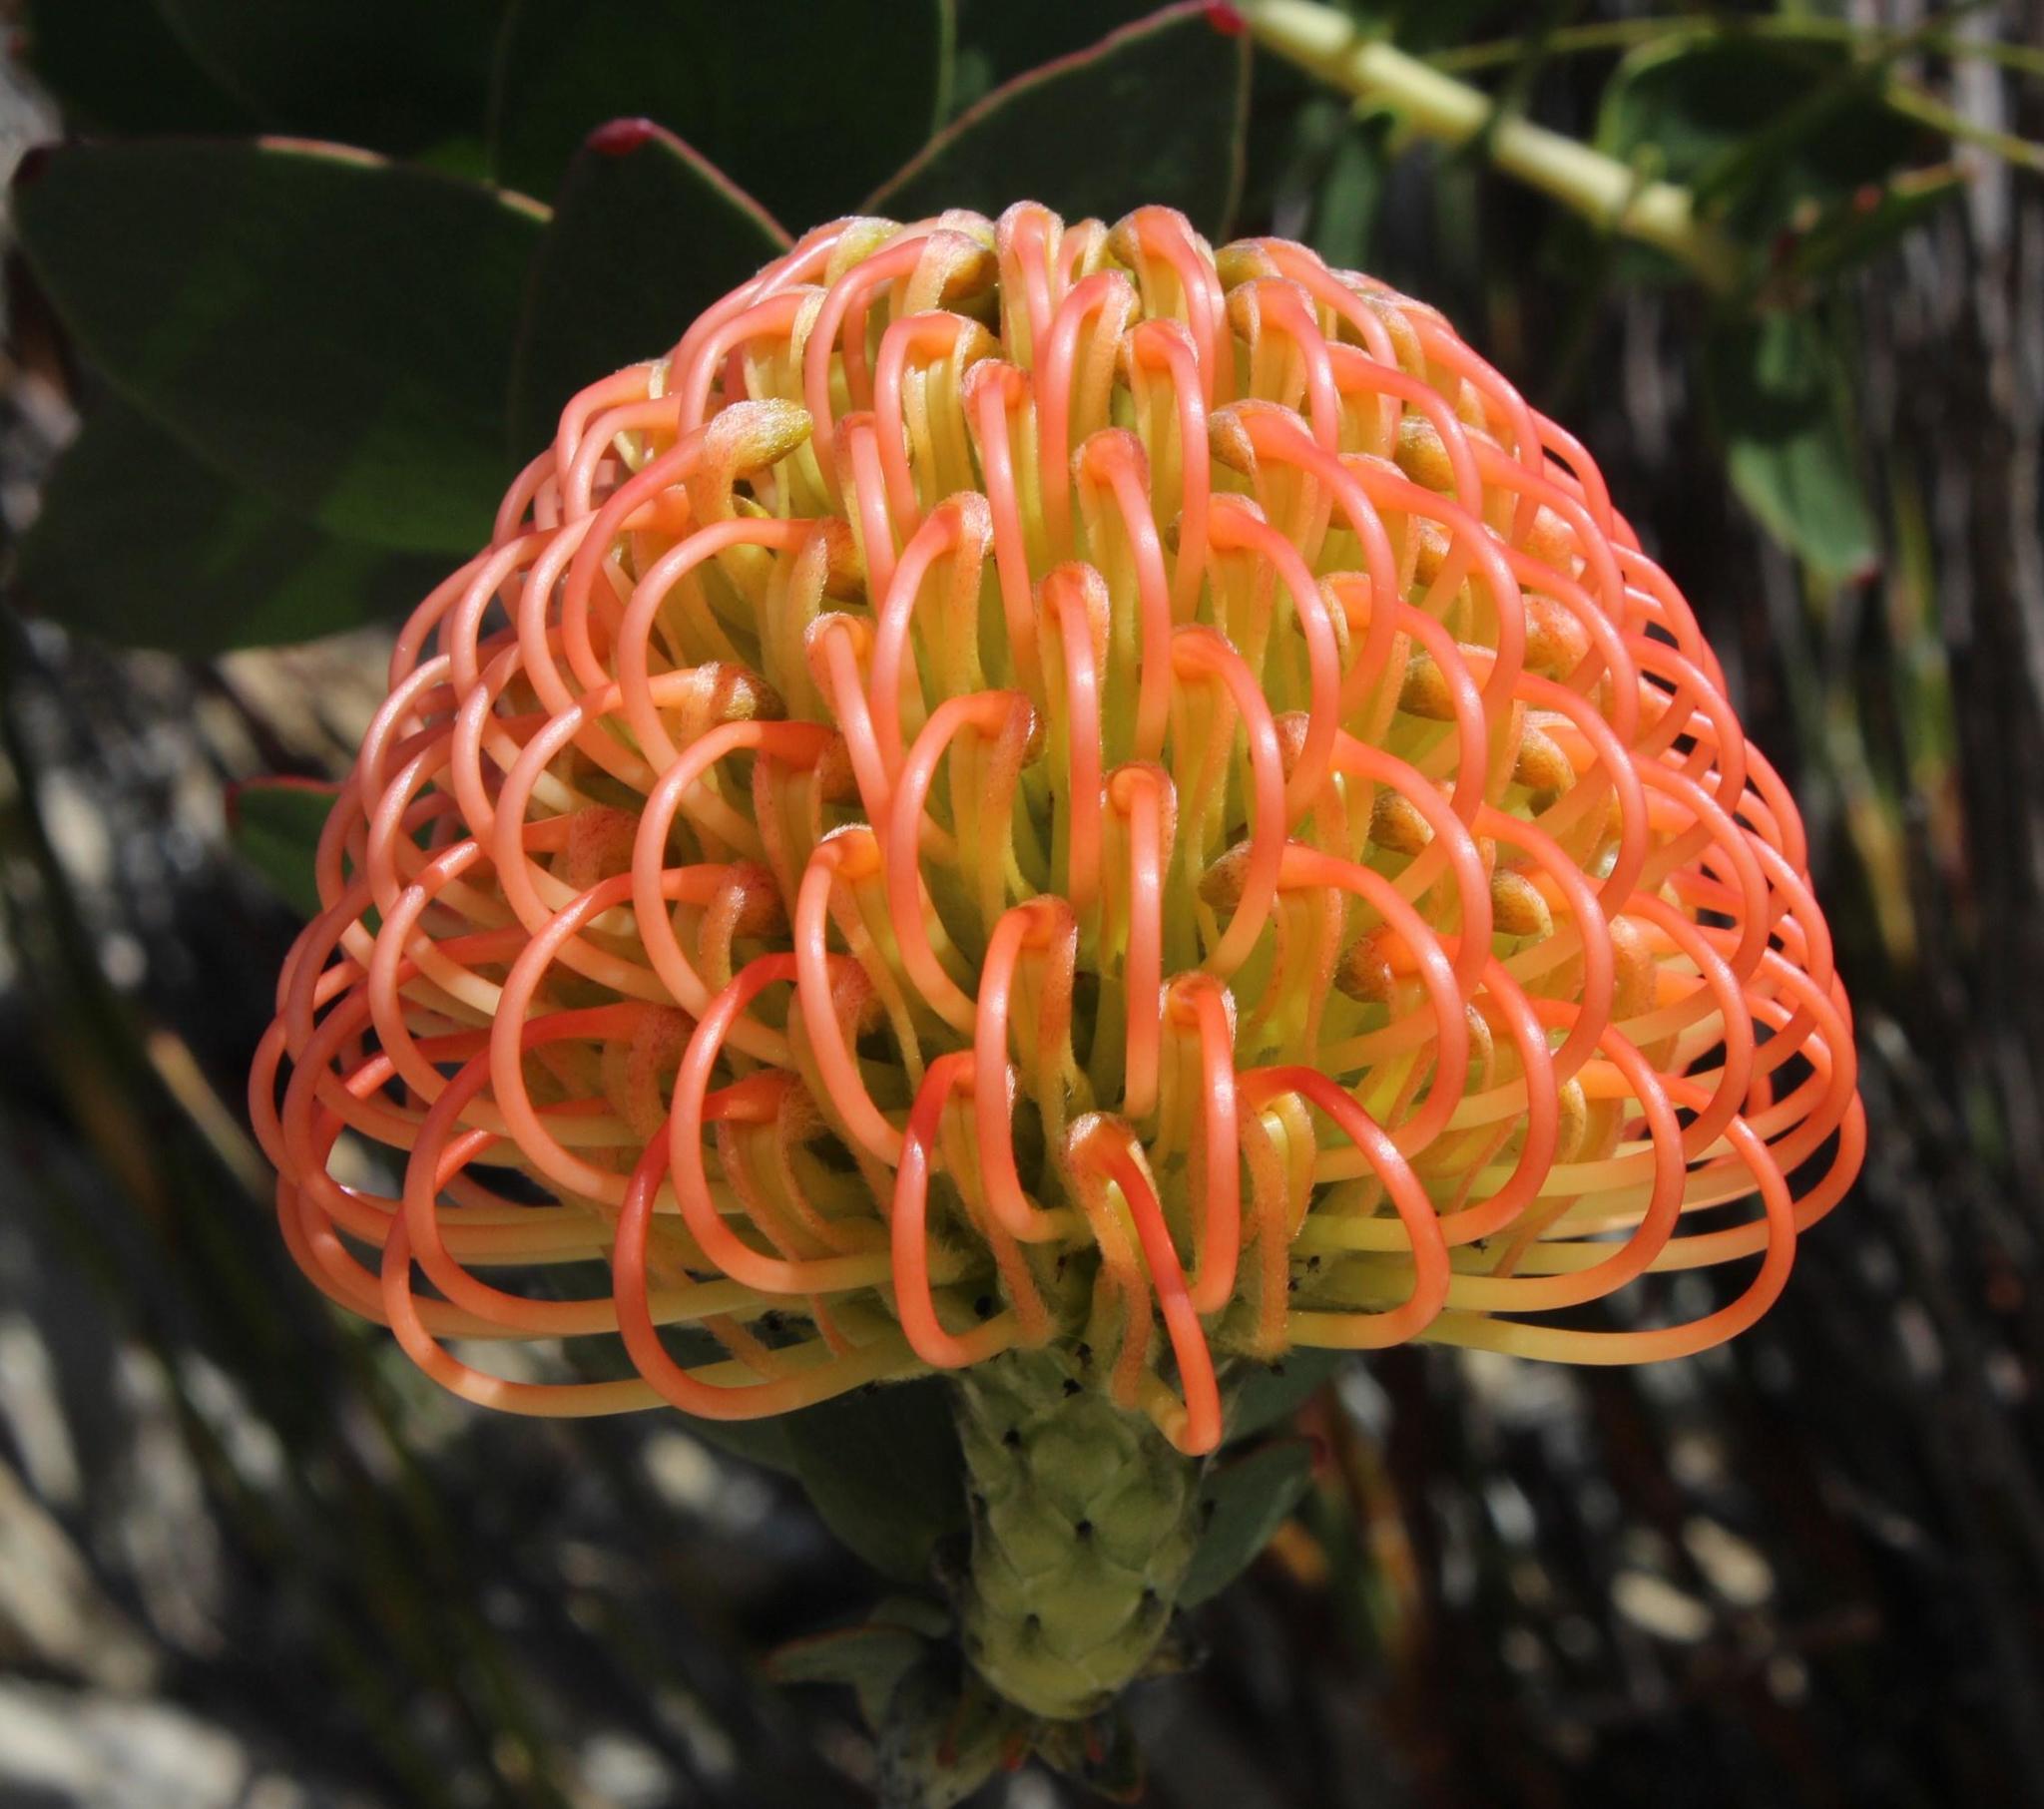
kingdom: Plantae
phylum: Tracheophyta
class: Magnoliopsida
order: Proteales
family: Proteaceae
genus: Leucospermum
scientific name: Leucospermum cordifolium
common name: Red pincushion-protea
